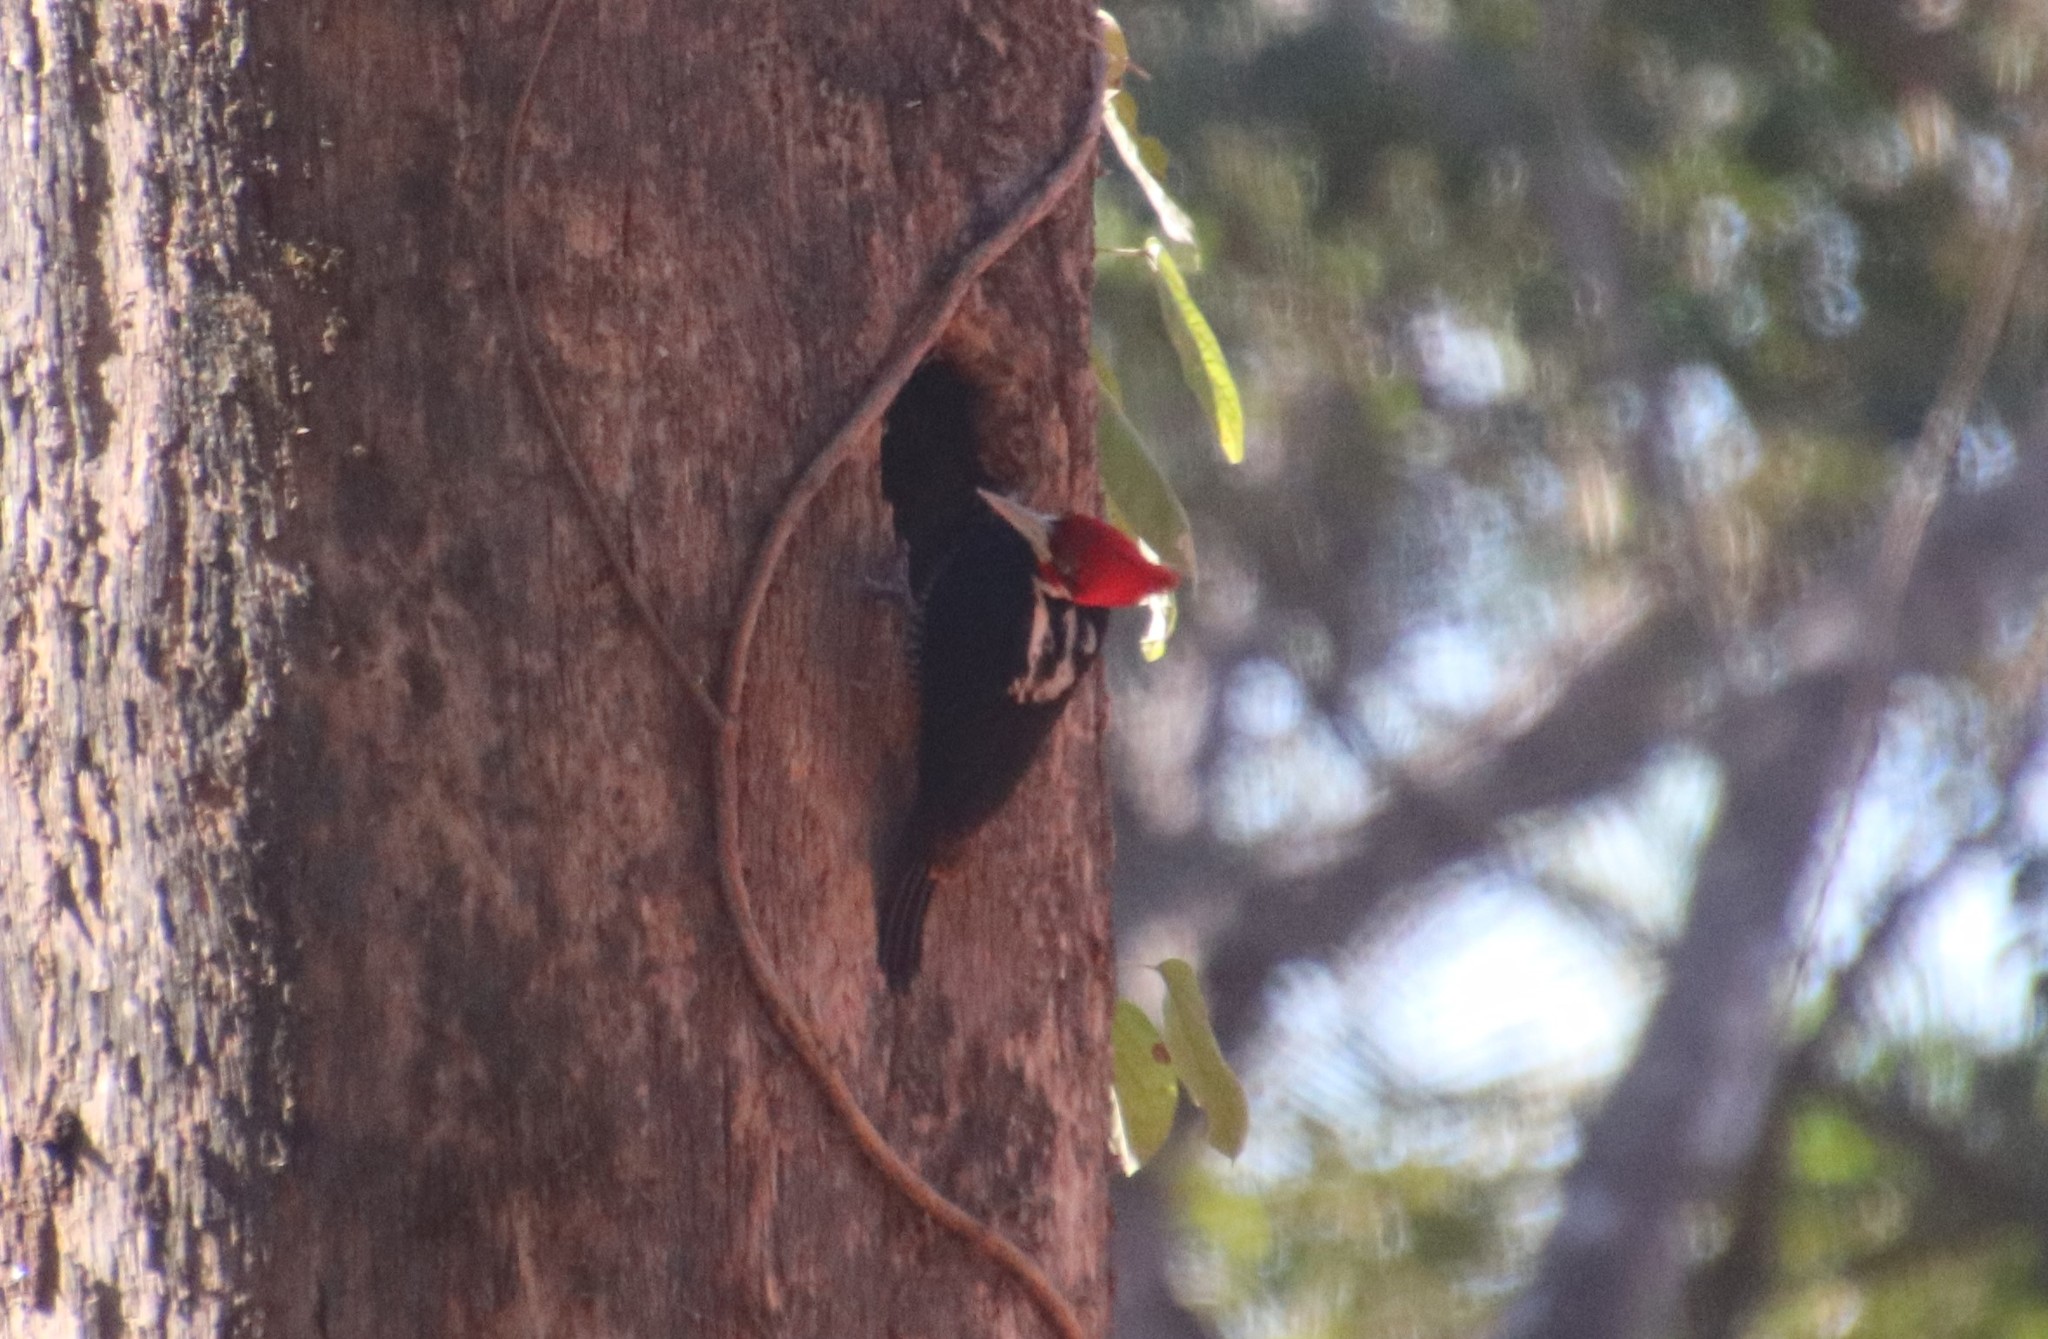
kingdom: Animalia
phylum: Chordata
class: Aves
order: Piciformes
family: Picidae
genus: Campephilus
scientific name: Campephilus melanoleucos
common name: Crimson-crested woodpecker
